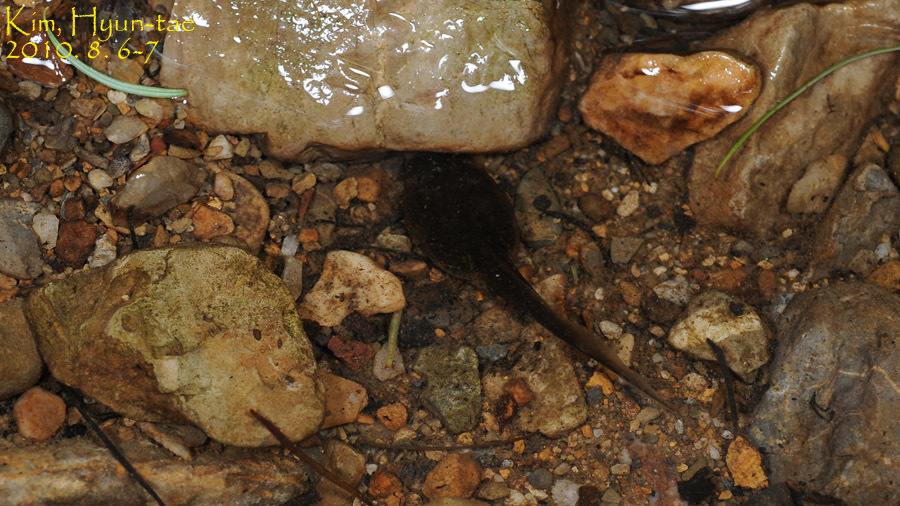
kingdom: Animalia
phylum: Chordata
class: Amphibia
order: Anura
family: Ranidae
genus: Rana
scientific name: Rana huanrenensis
